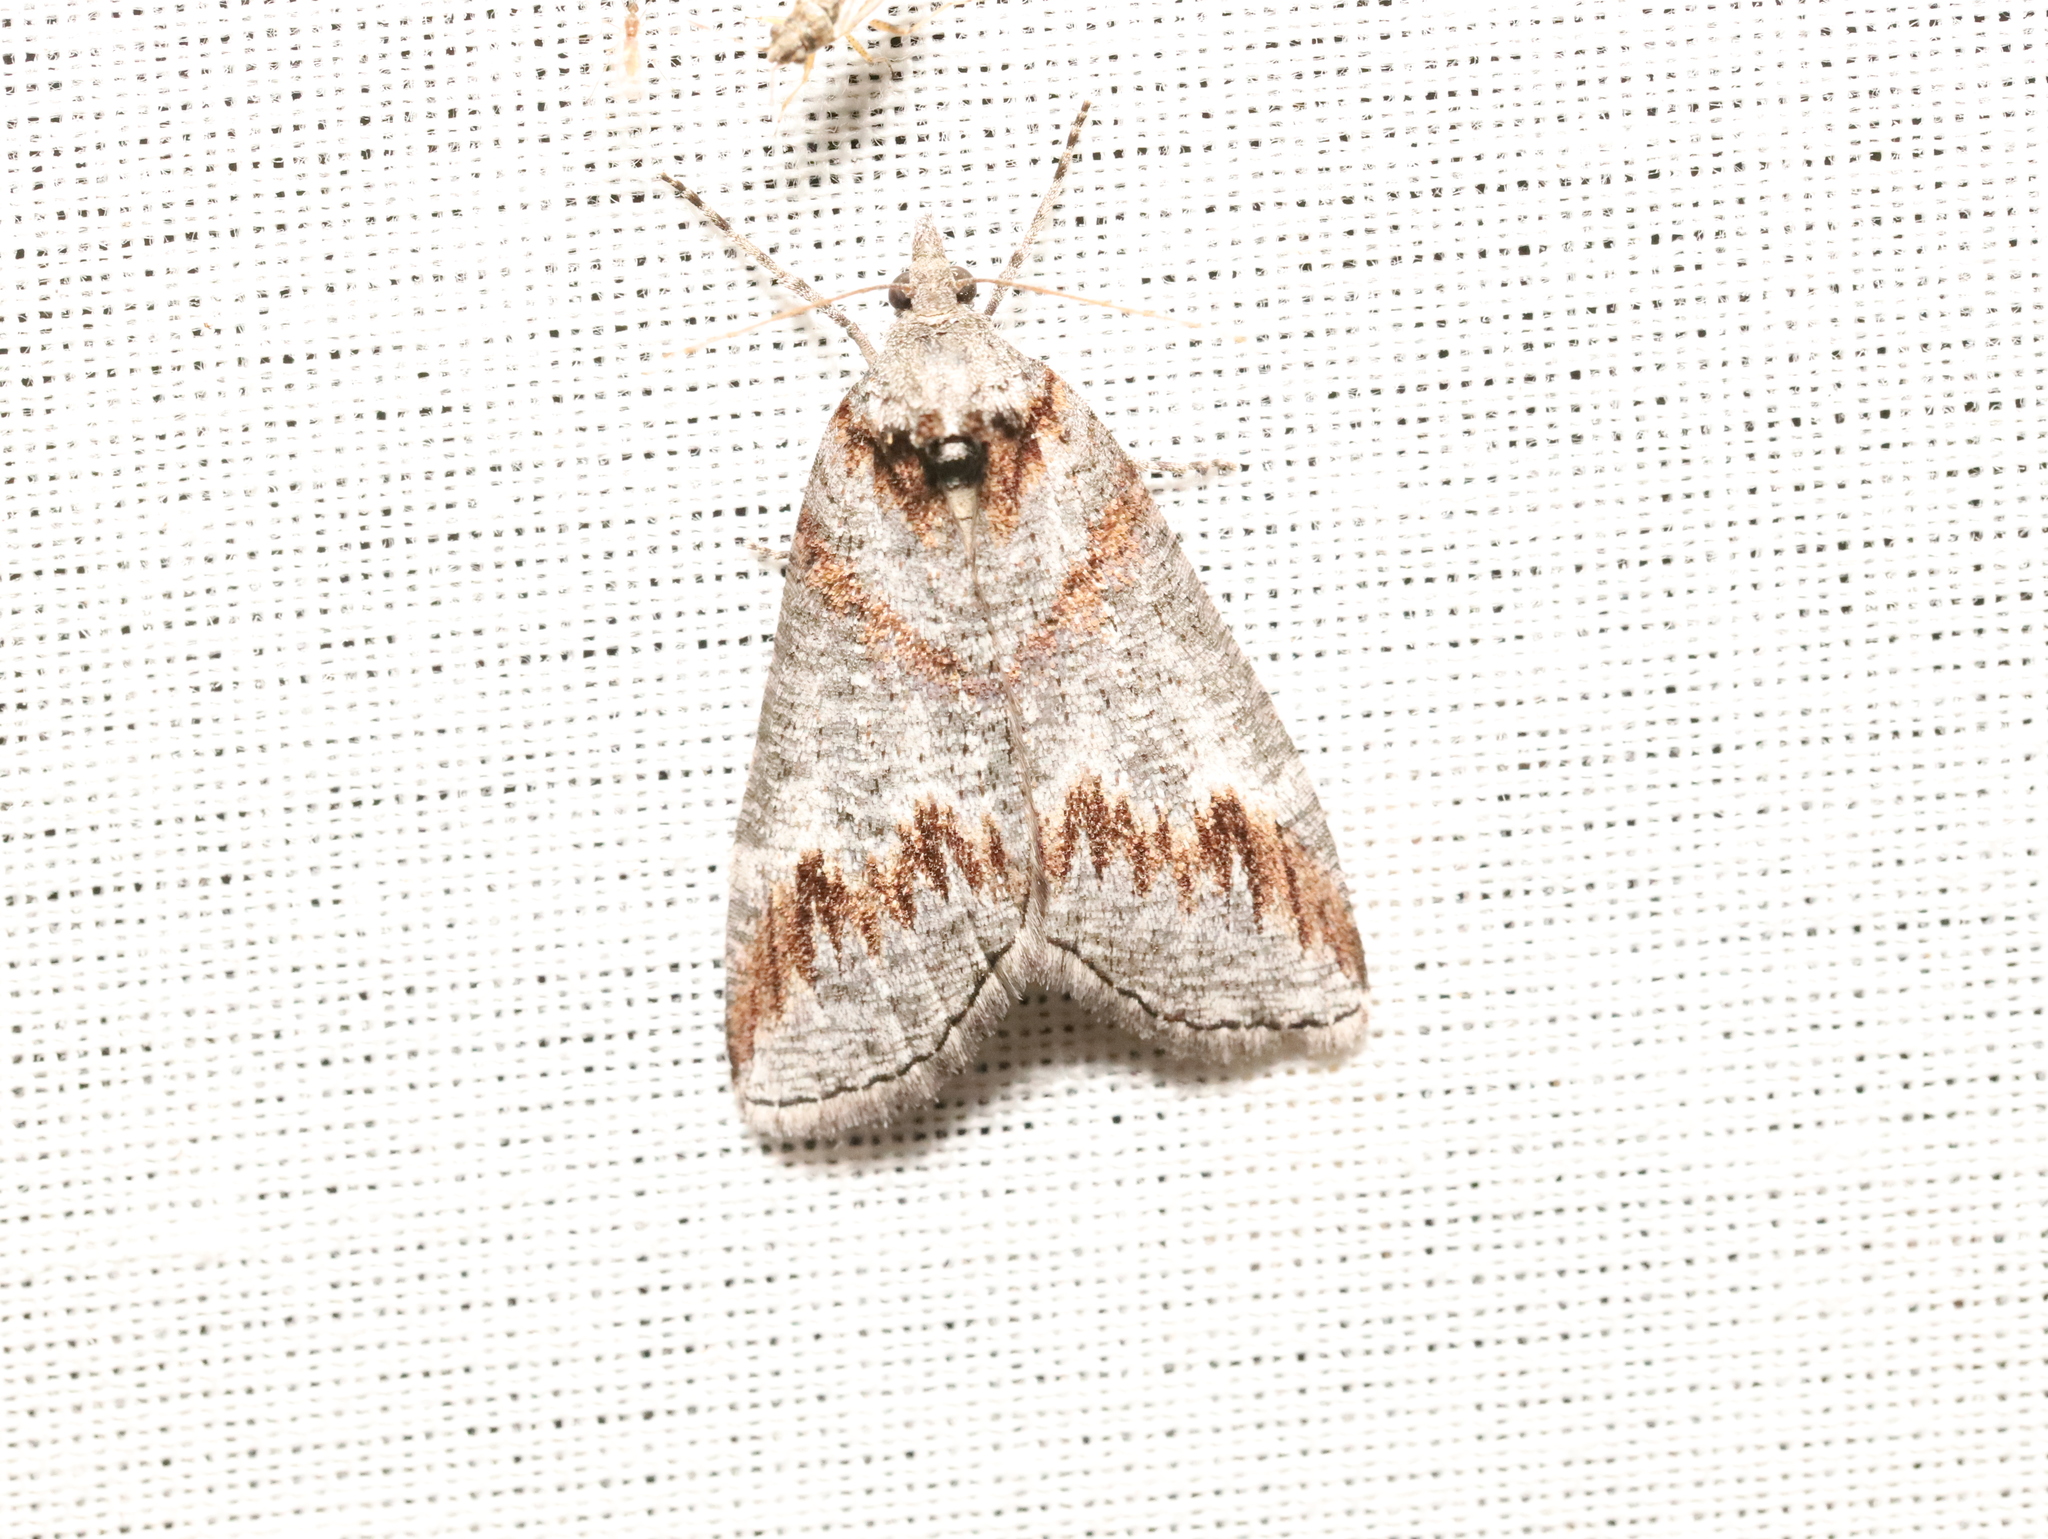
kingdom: Animalia
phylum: Arthropoda
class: Insecta
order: Lepidoptera
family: Geometridae
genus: Plesiolaea
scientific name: Plesiolaea maritima
